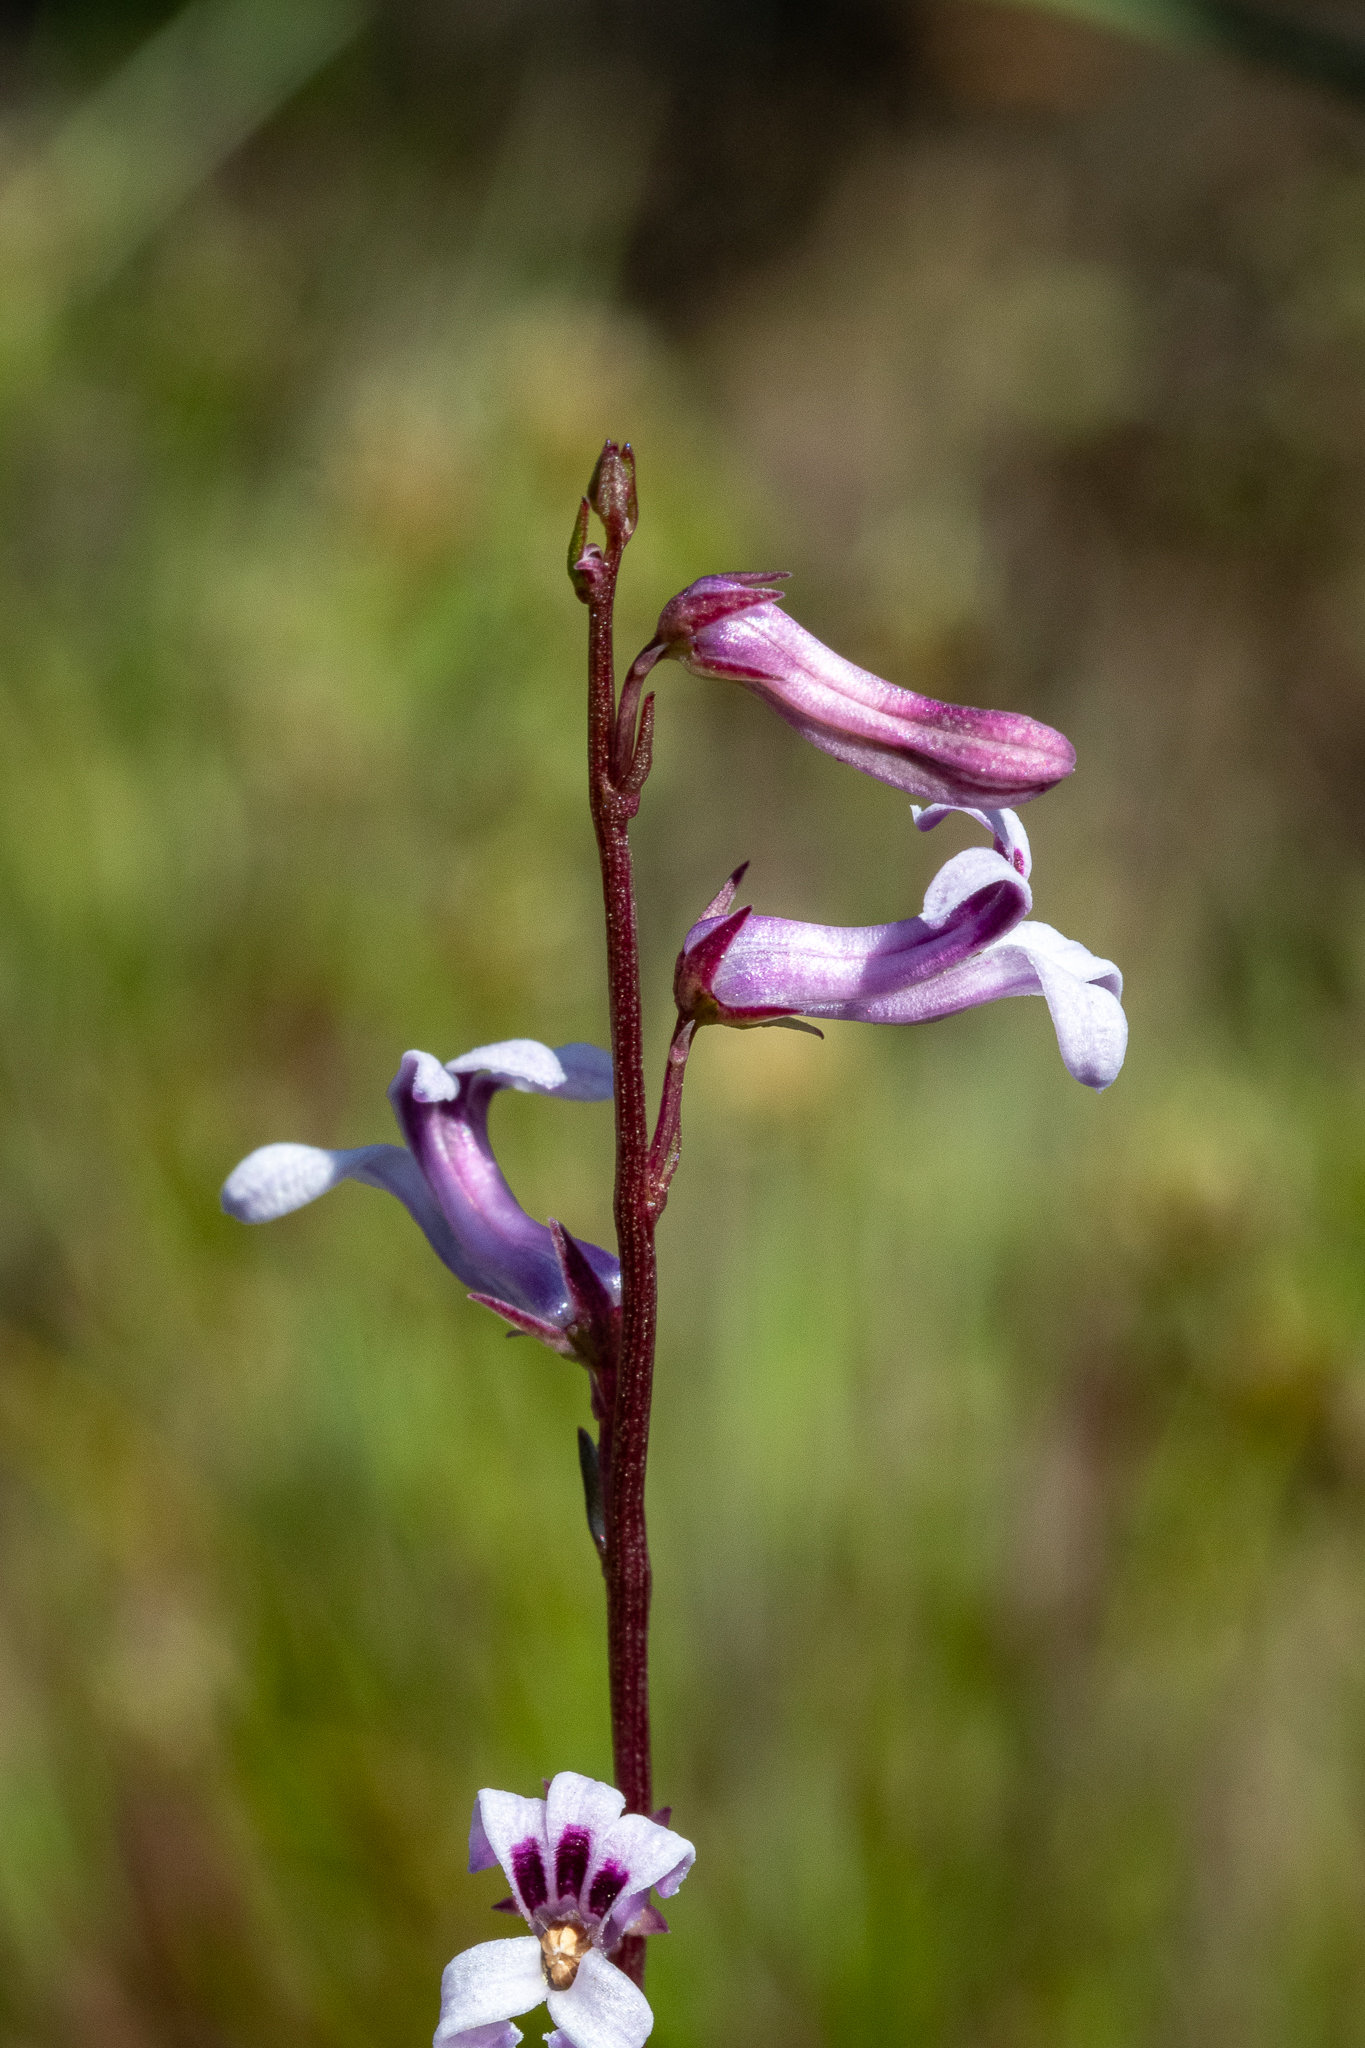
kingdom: Plantae
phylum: Tracheophyta
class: Magnoliopsida
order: Asterales
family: Campanulaceae
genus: Cyphia
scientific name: Cyphia linarioides
